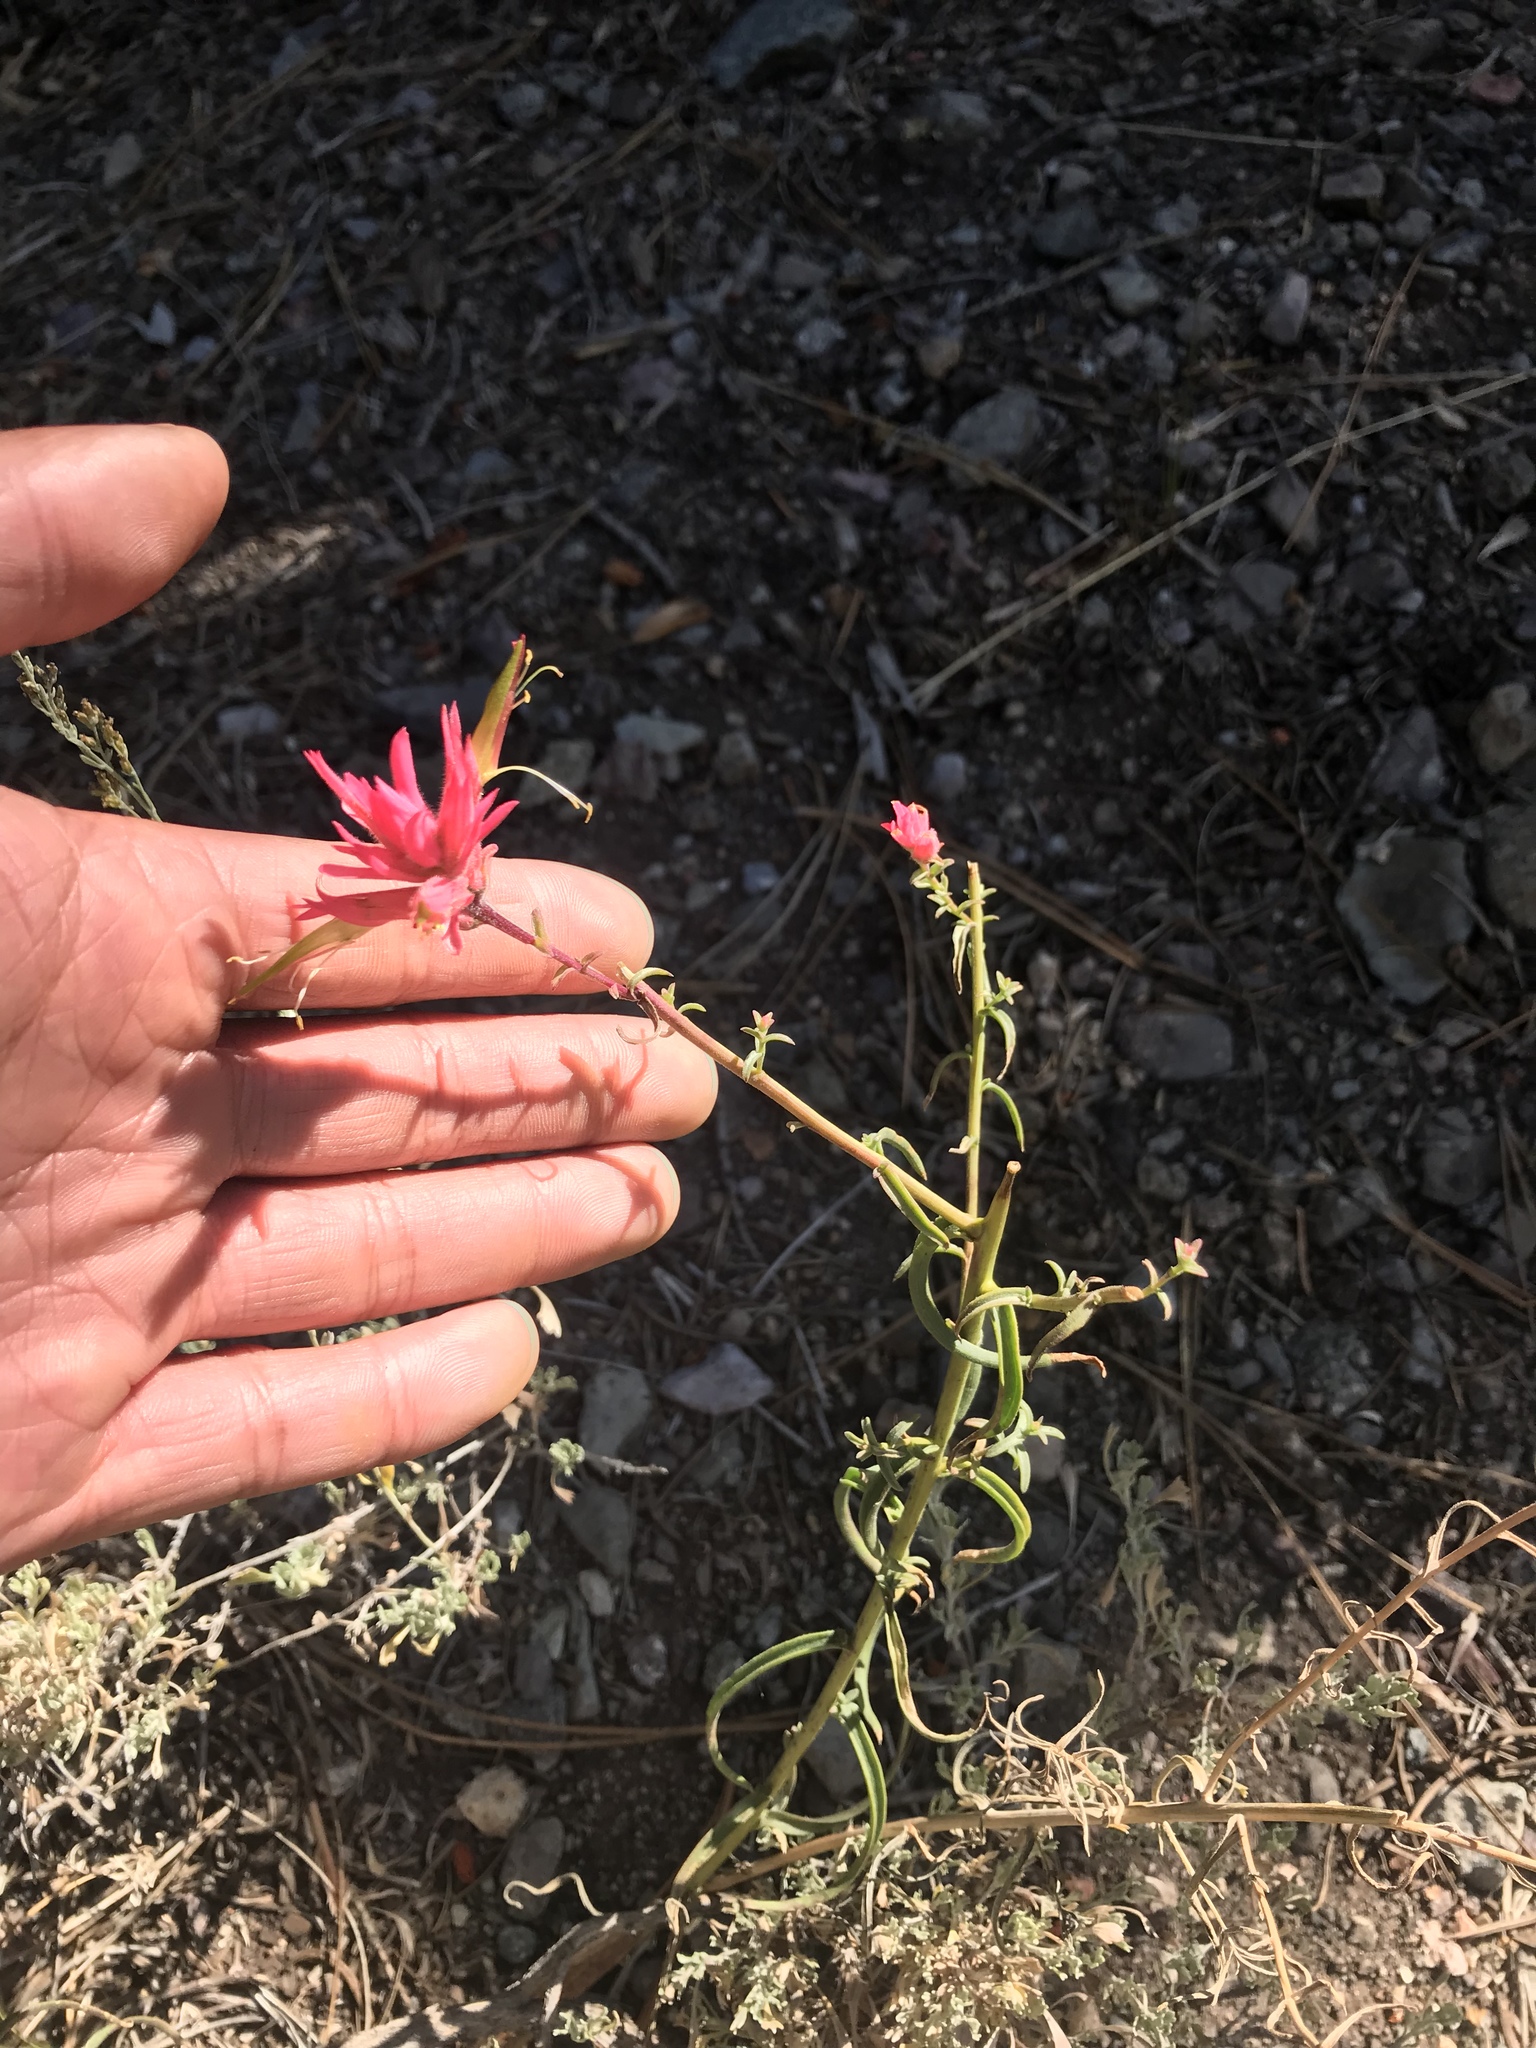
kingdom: Plantae
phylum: Tracheophyta
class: Magnoliopsida
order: Lamiales
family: Orobanchaceae
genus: Castilleja
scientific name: Castilleja linariifolia
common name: Wyoming paintbrush
